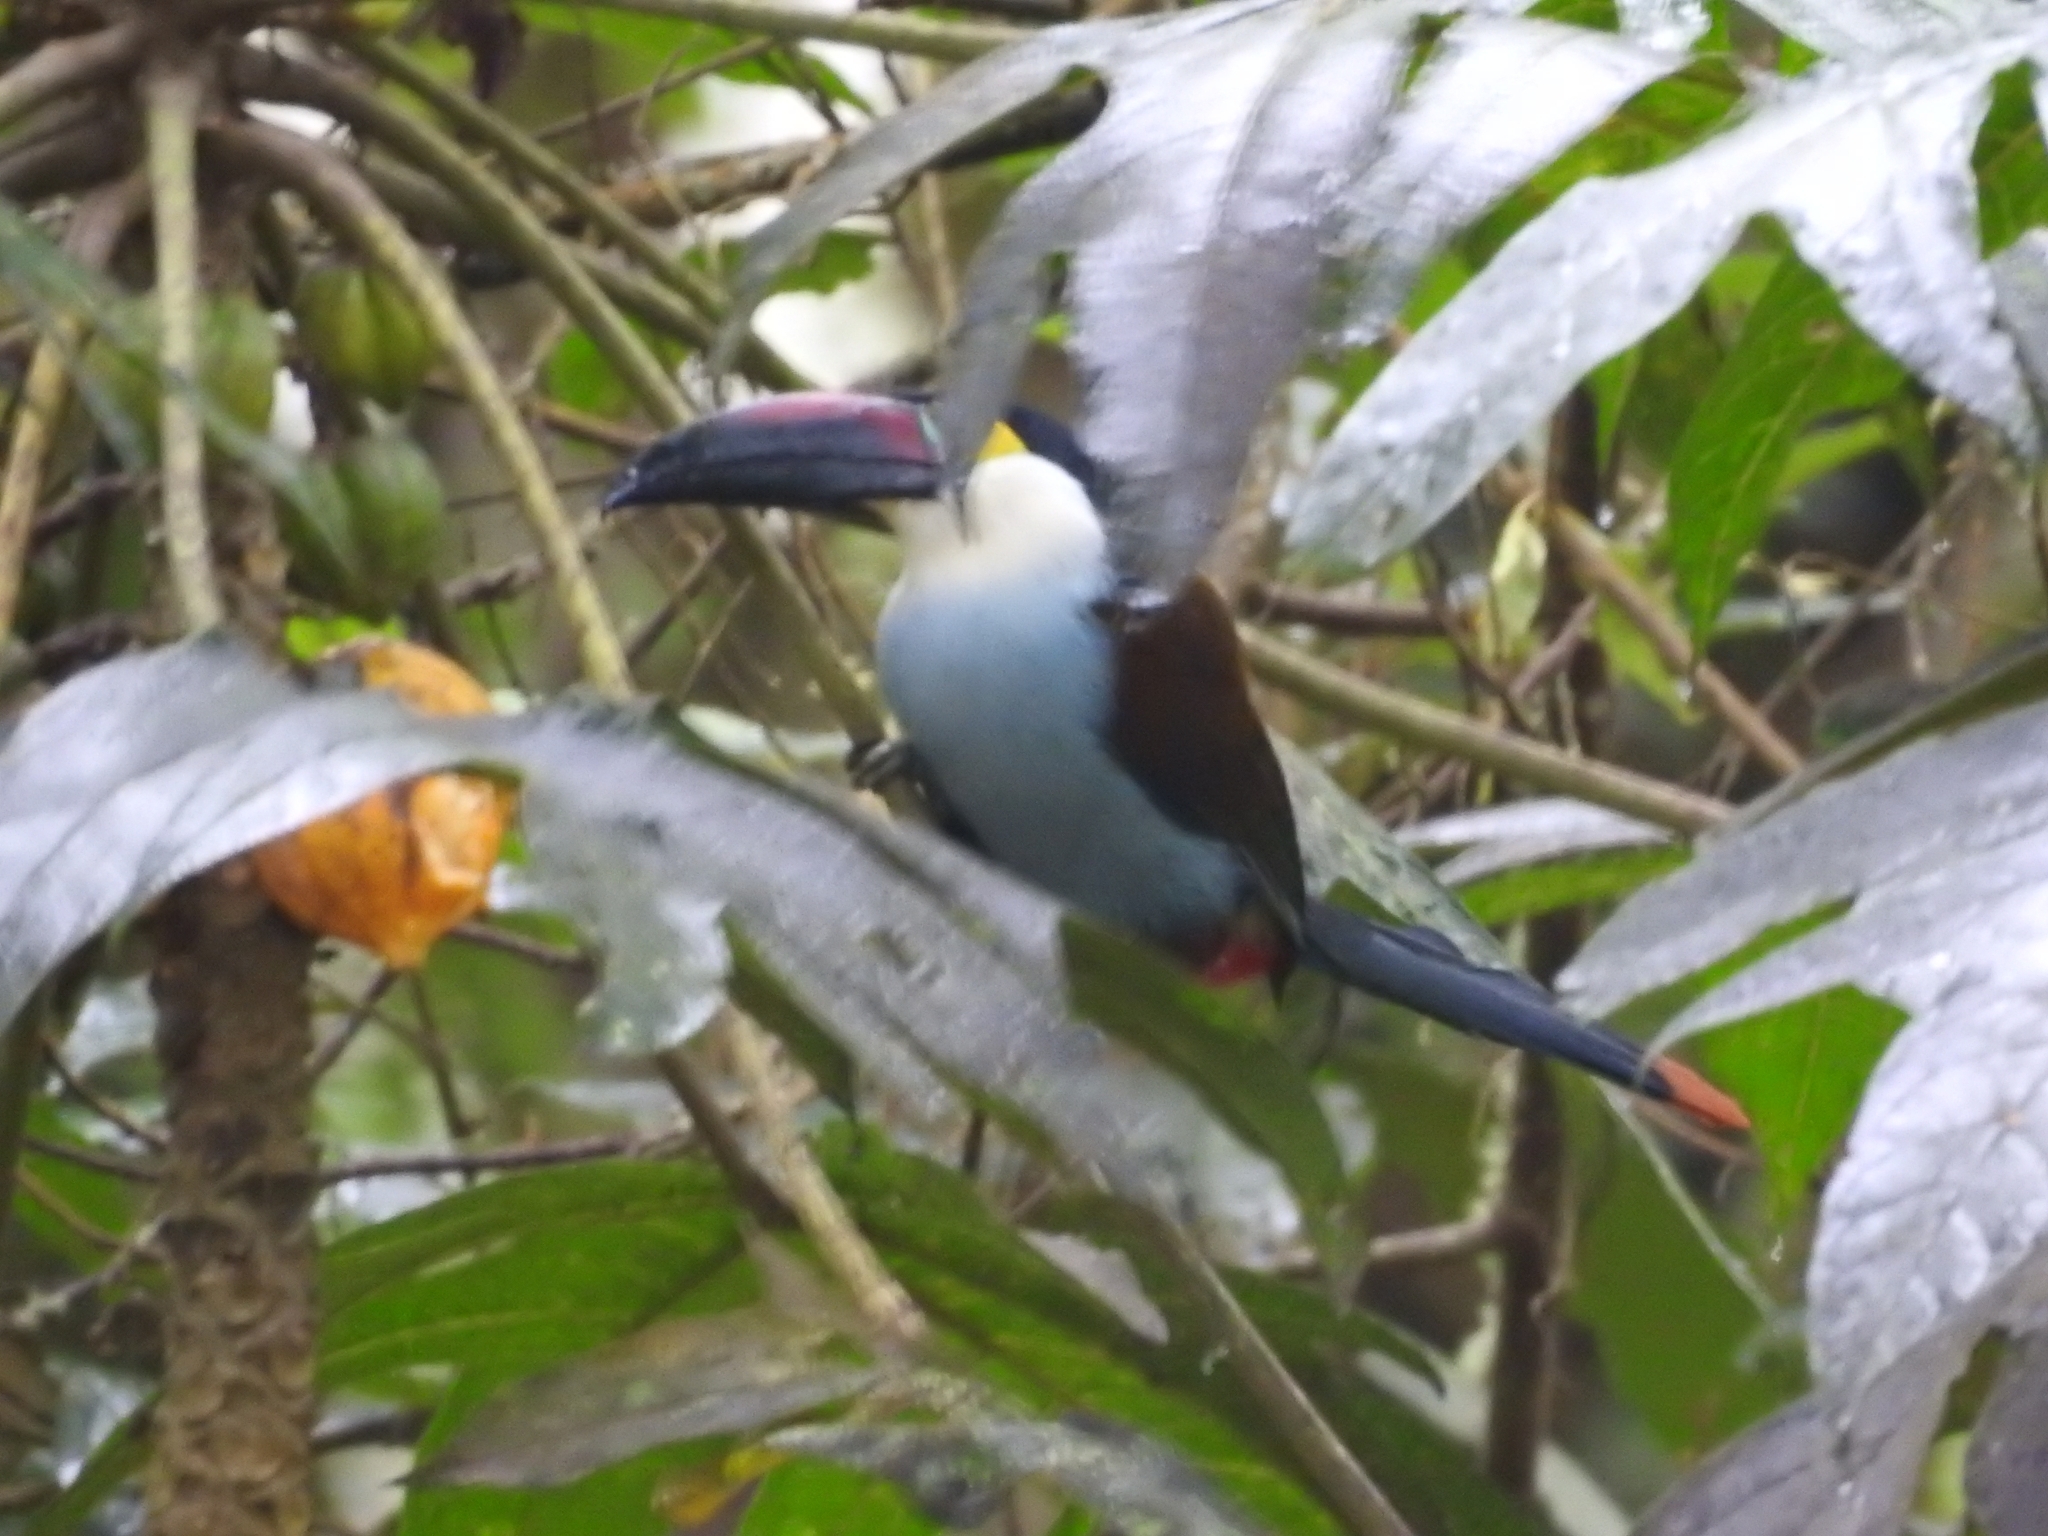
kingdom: Animalia
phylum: Chordata
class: Aves
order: Piciformes
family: Ramphastidae
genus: Andigena
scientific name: Andigena nigrirostris
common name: Black-billed mountain toucan
